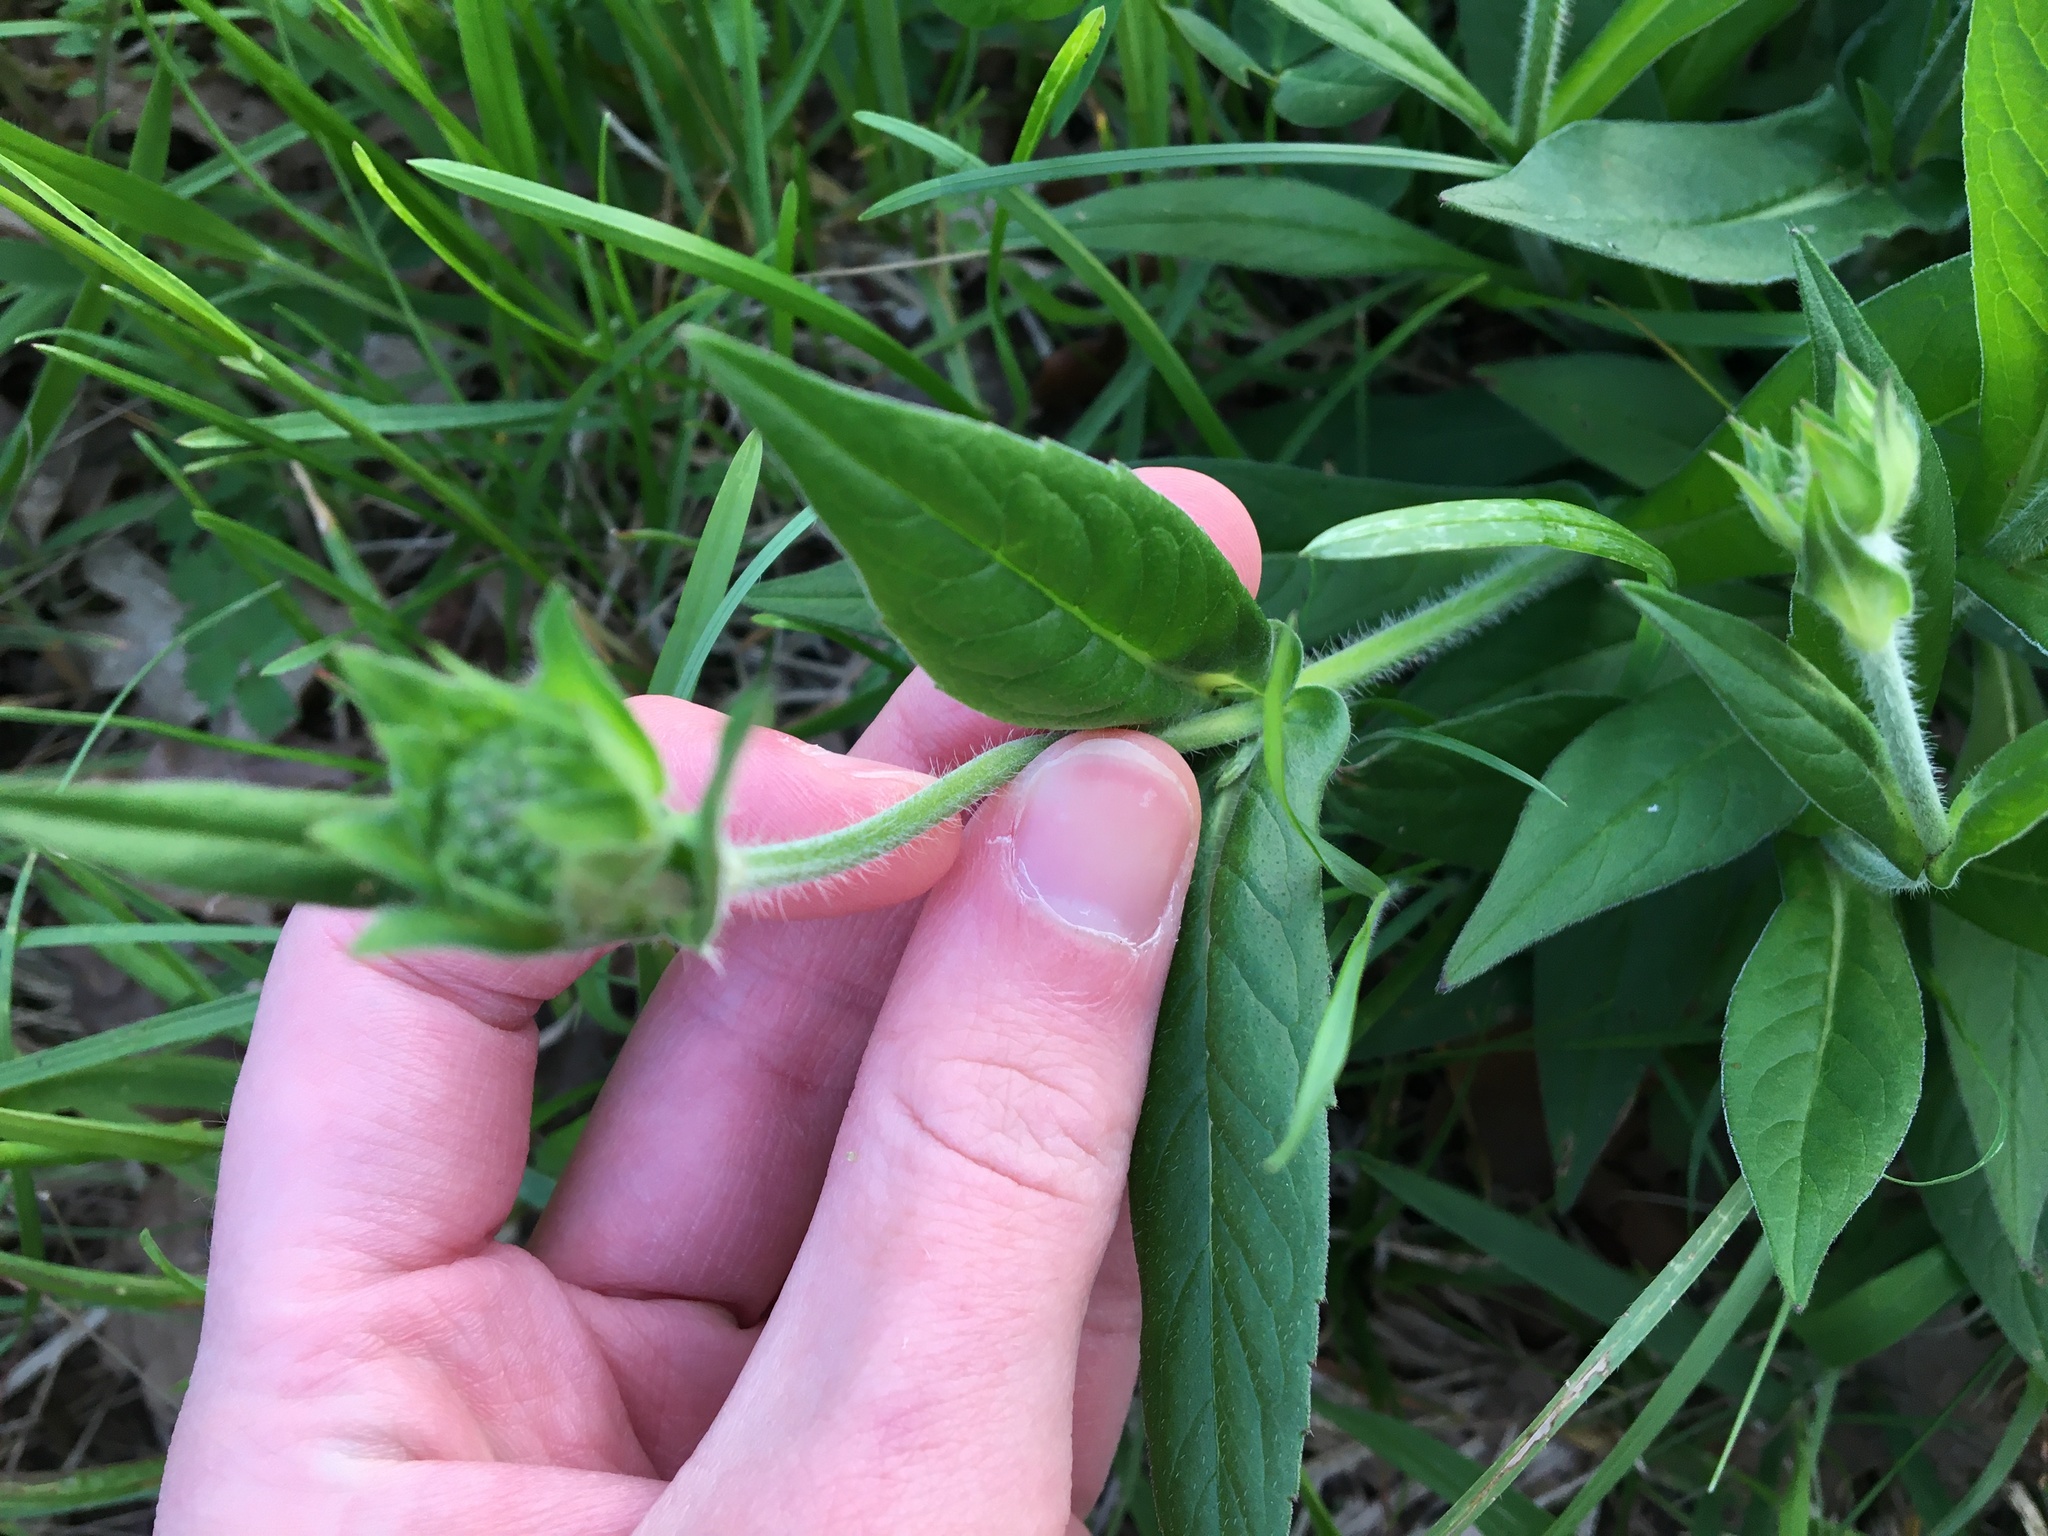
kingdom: Plantae
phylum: Tracheophyta
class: Magnoliopsida
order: Dipsacales
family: Caprifoliaceae
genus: Knautia
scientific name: Knautia arvensis
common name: Field scabiosa
